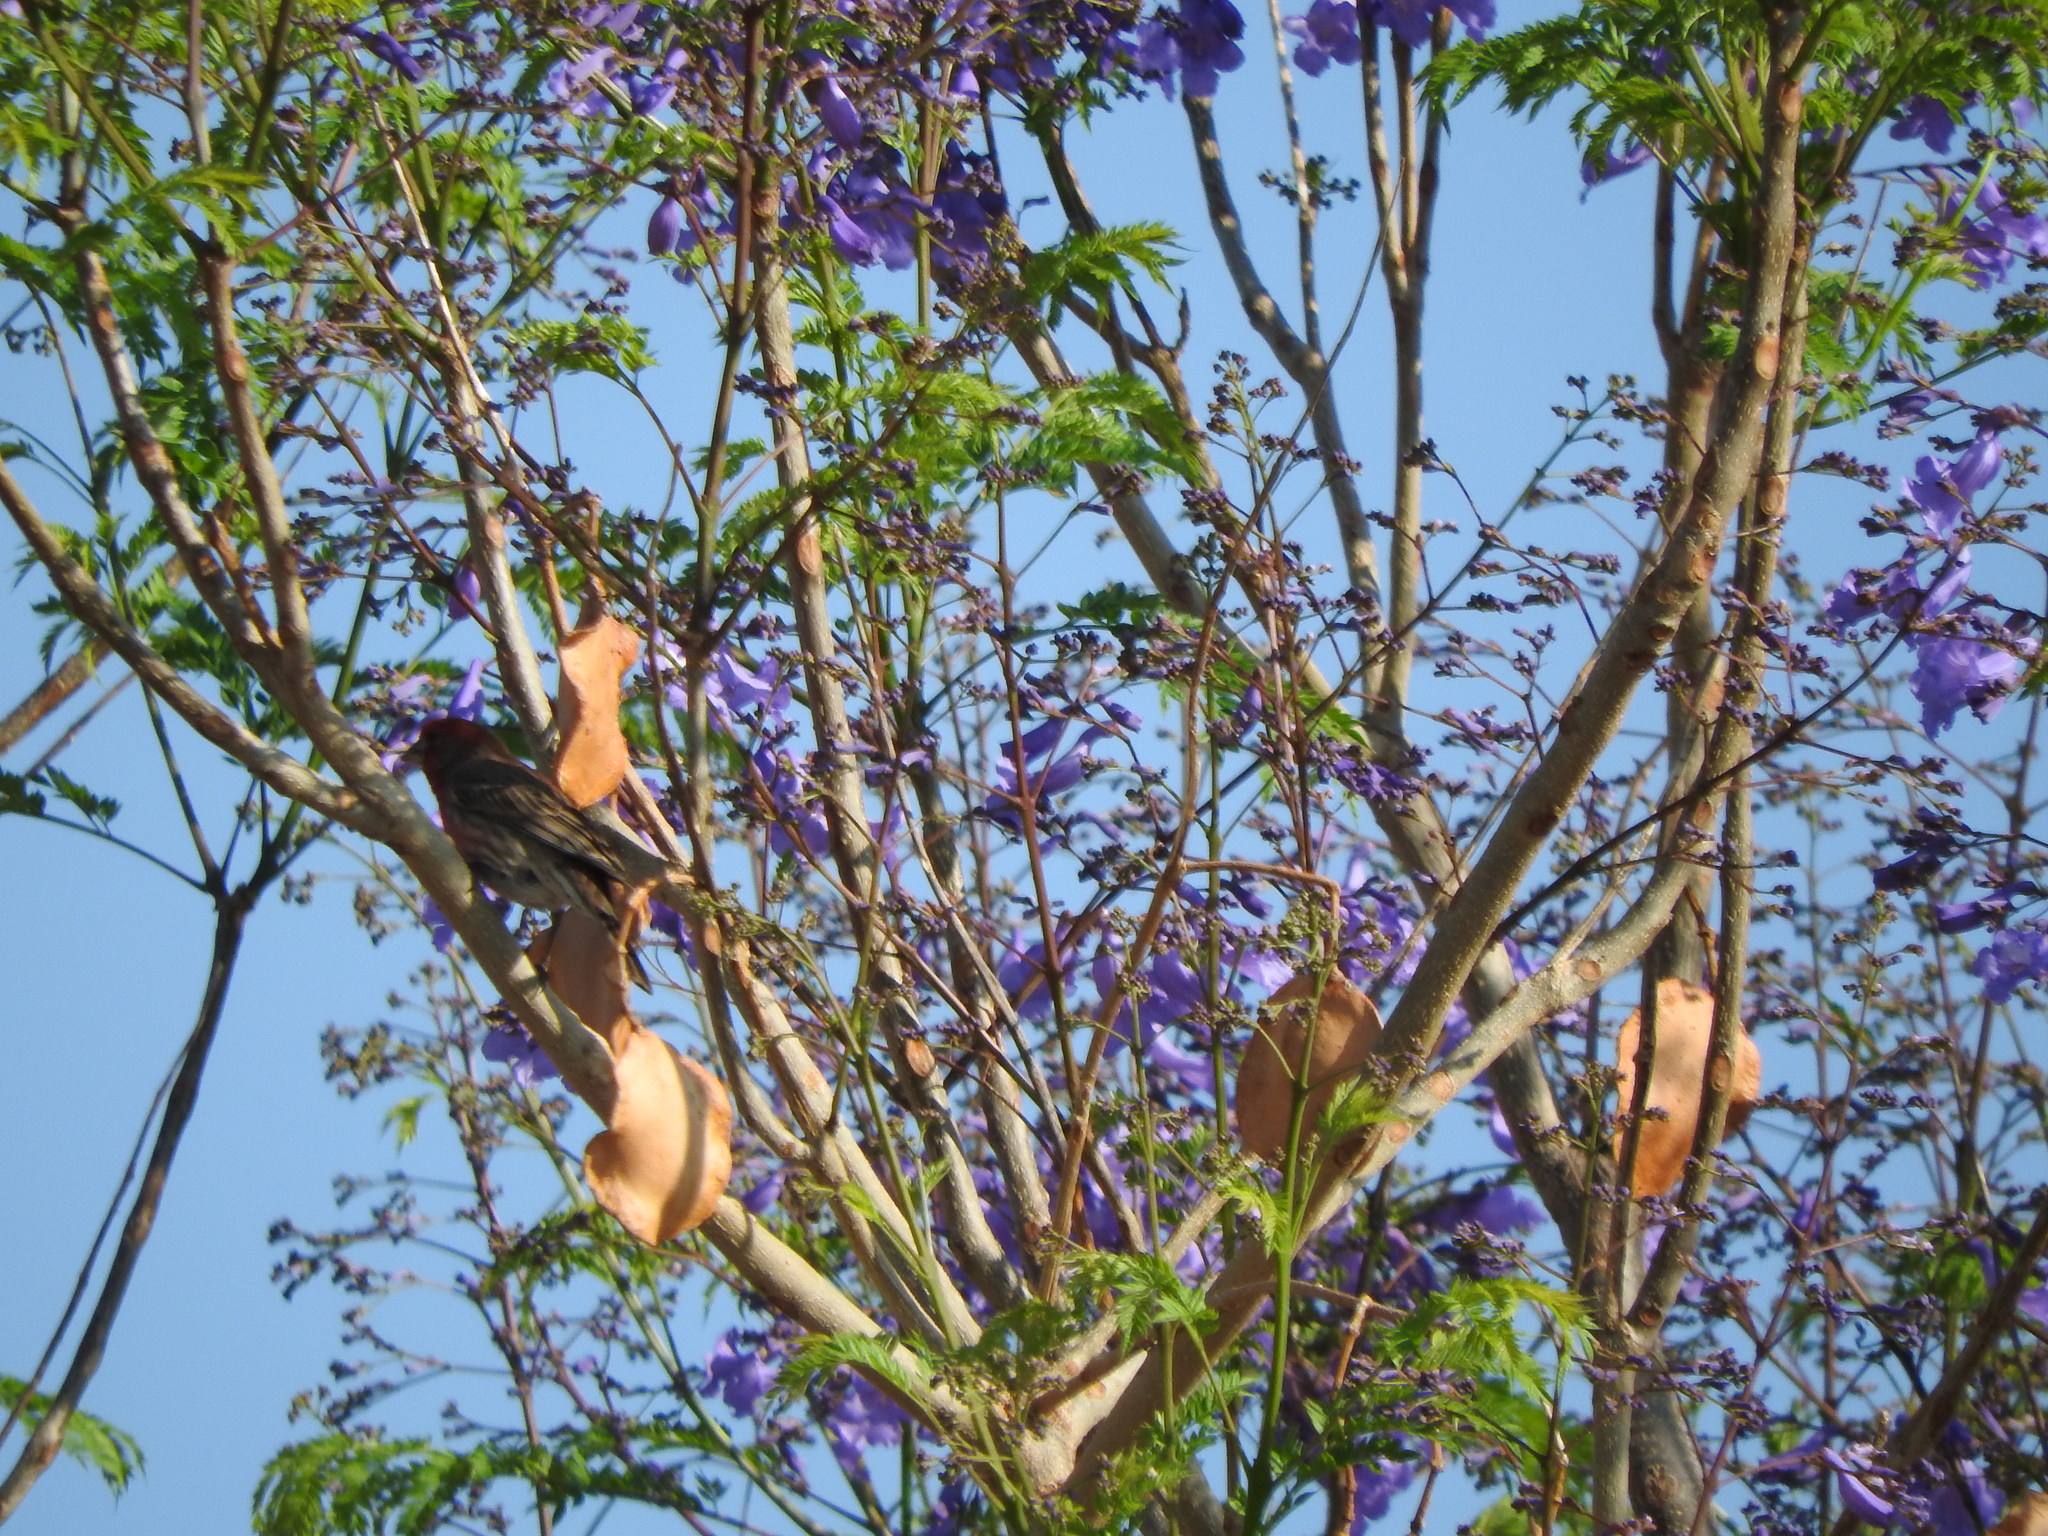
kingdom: Animalia
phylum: Chordata
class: Aves
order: Passeriformes
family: Fringillidae
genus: Haemorhous
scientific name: Haemorhous mexicanus
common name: House finch
